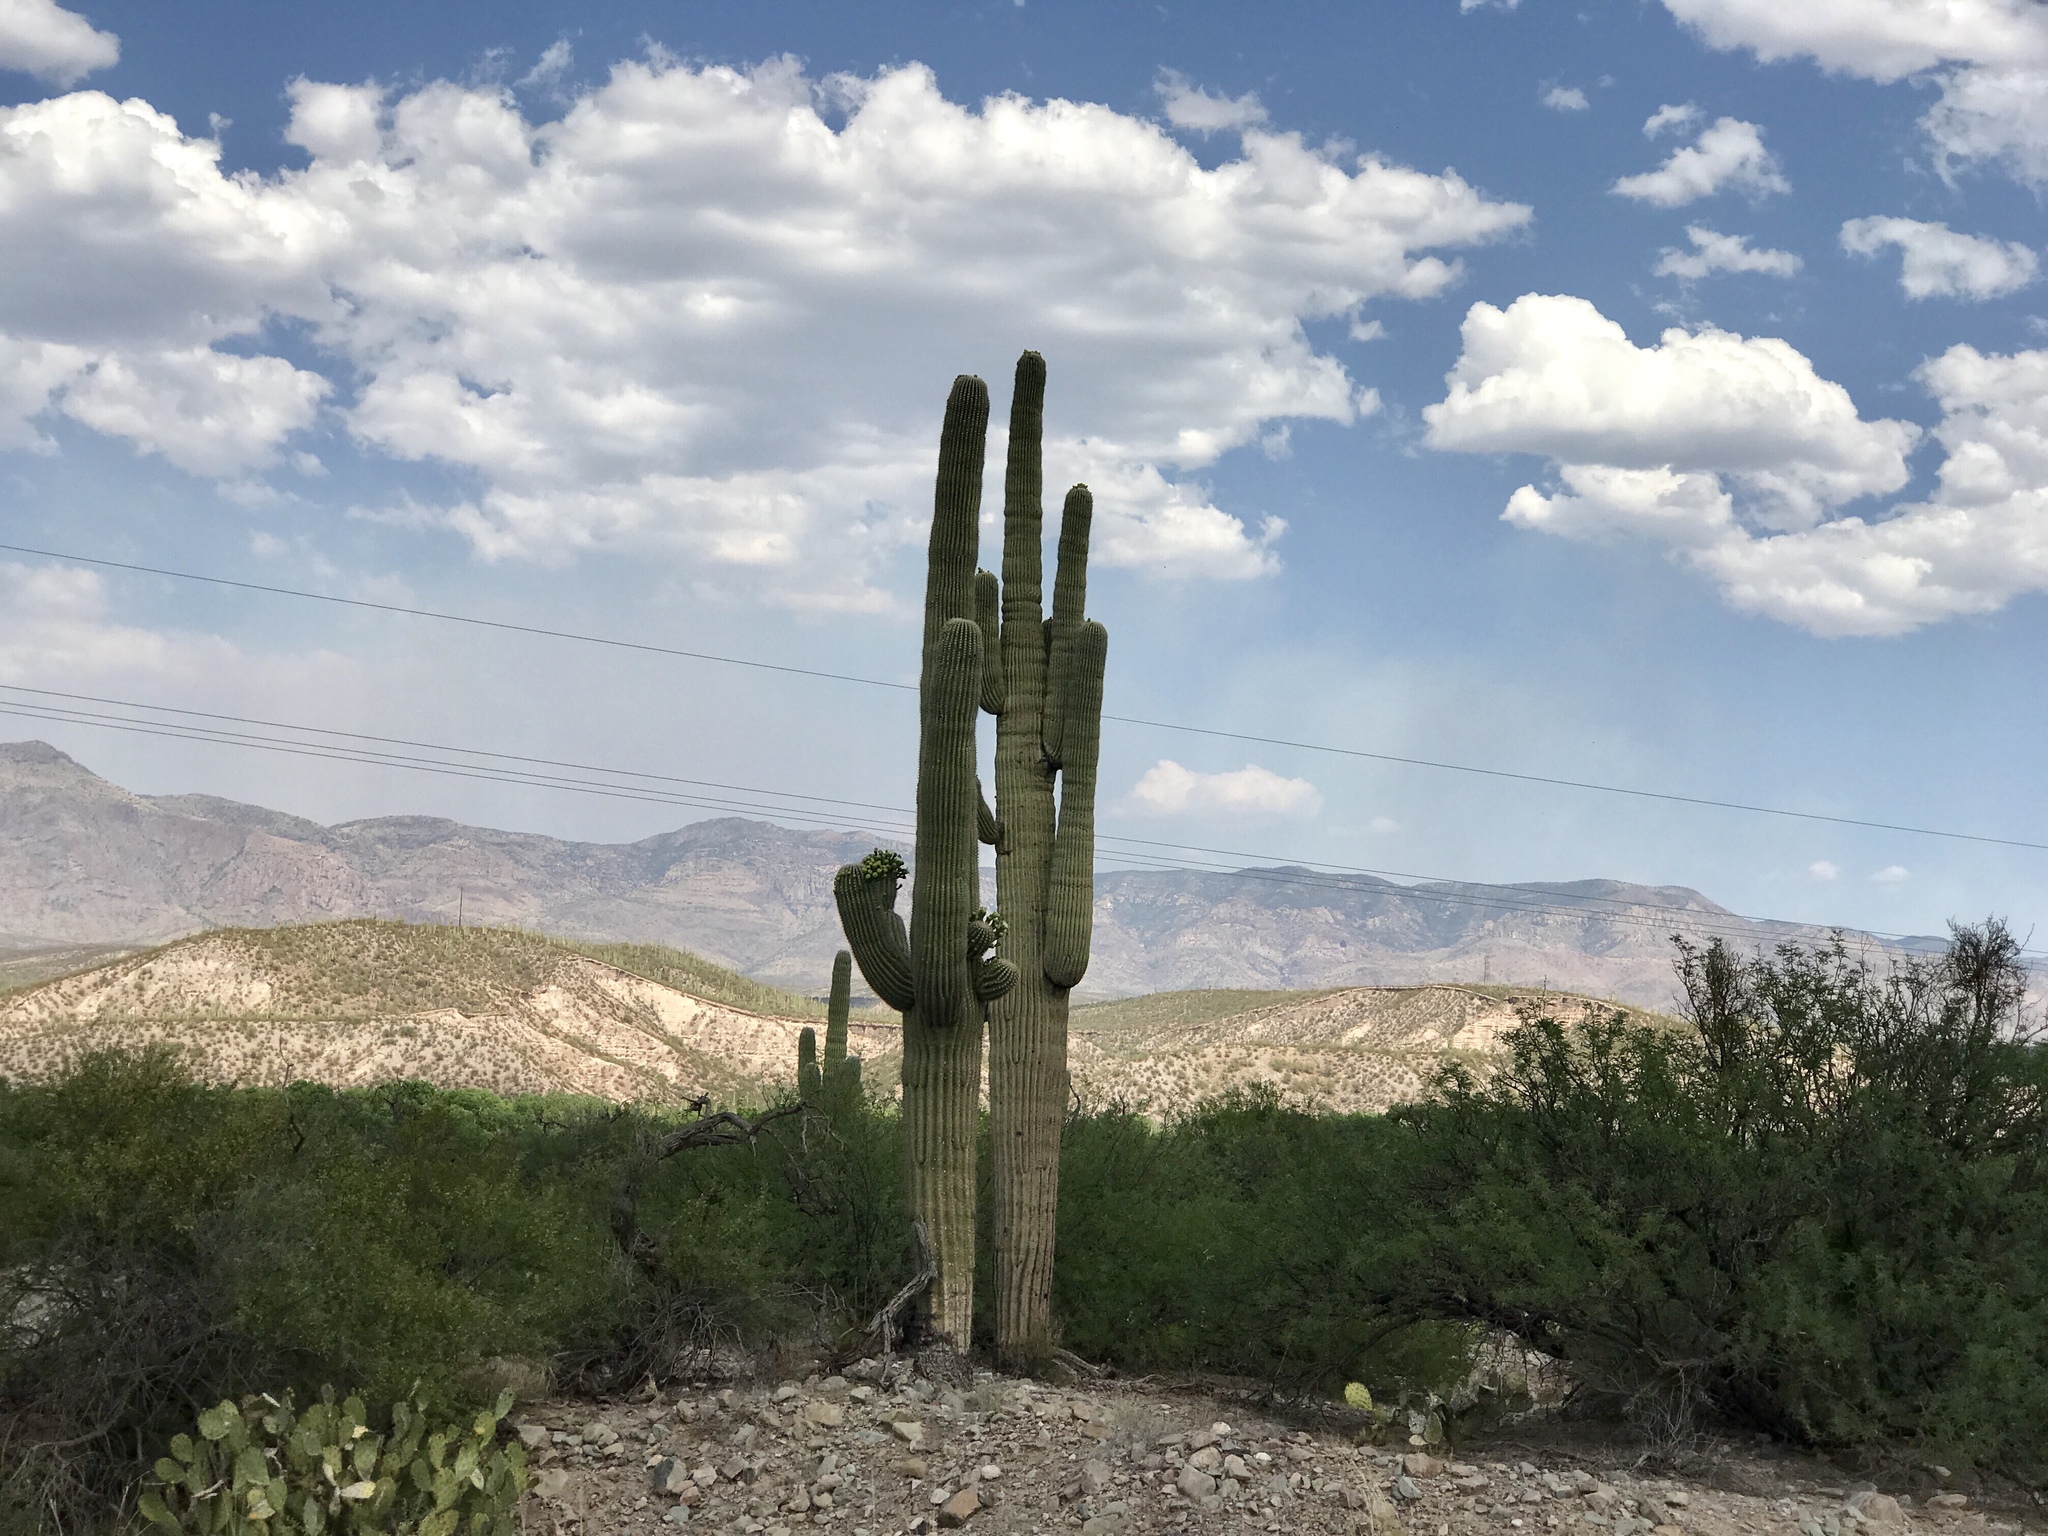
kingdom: Plantae
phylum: Tracheophyta
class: Magnoliopsida
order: Caryophyllales
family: Cactaceae
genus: Carnegiea
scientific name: Carnegiea gigantea
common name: Saguaro
